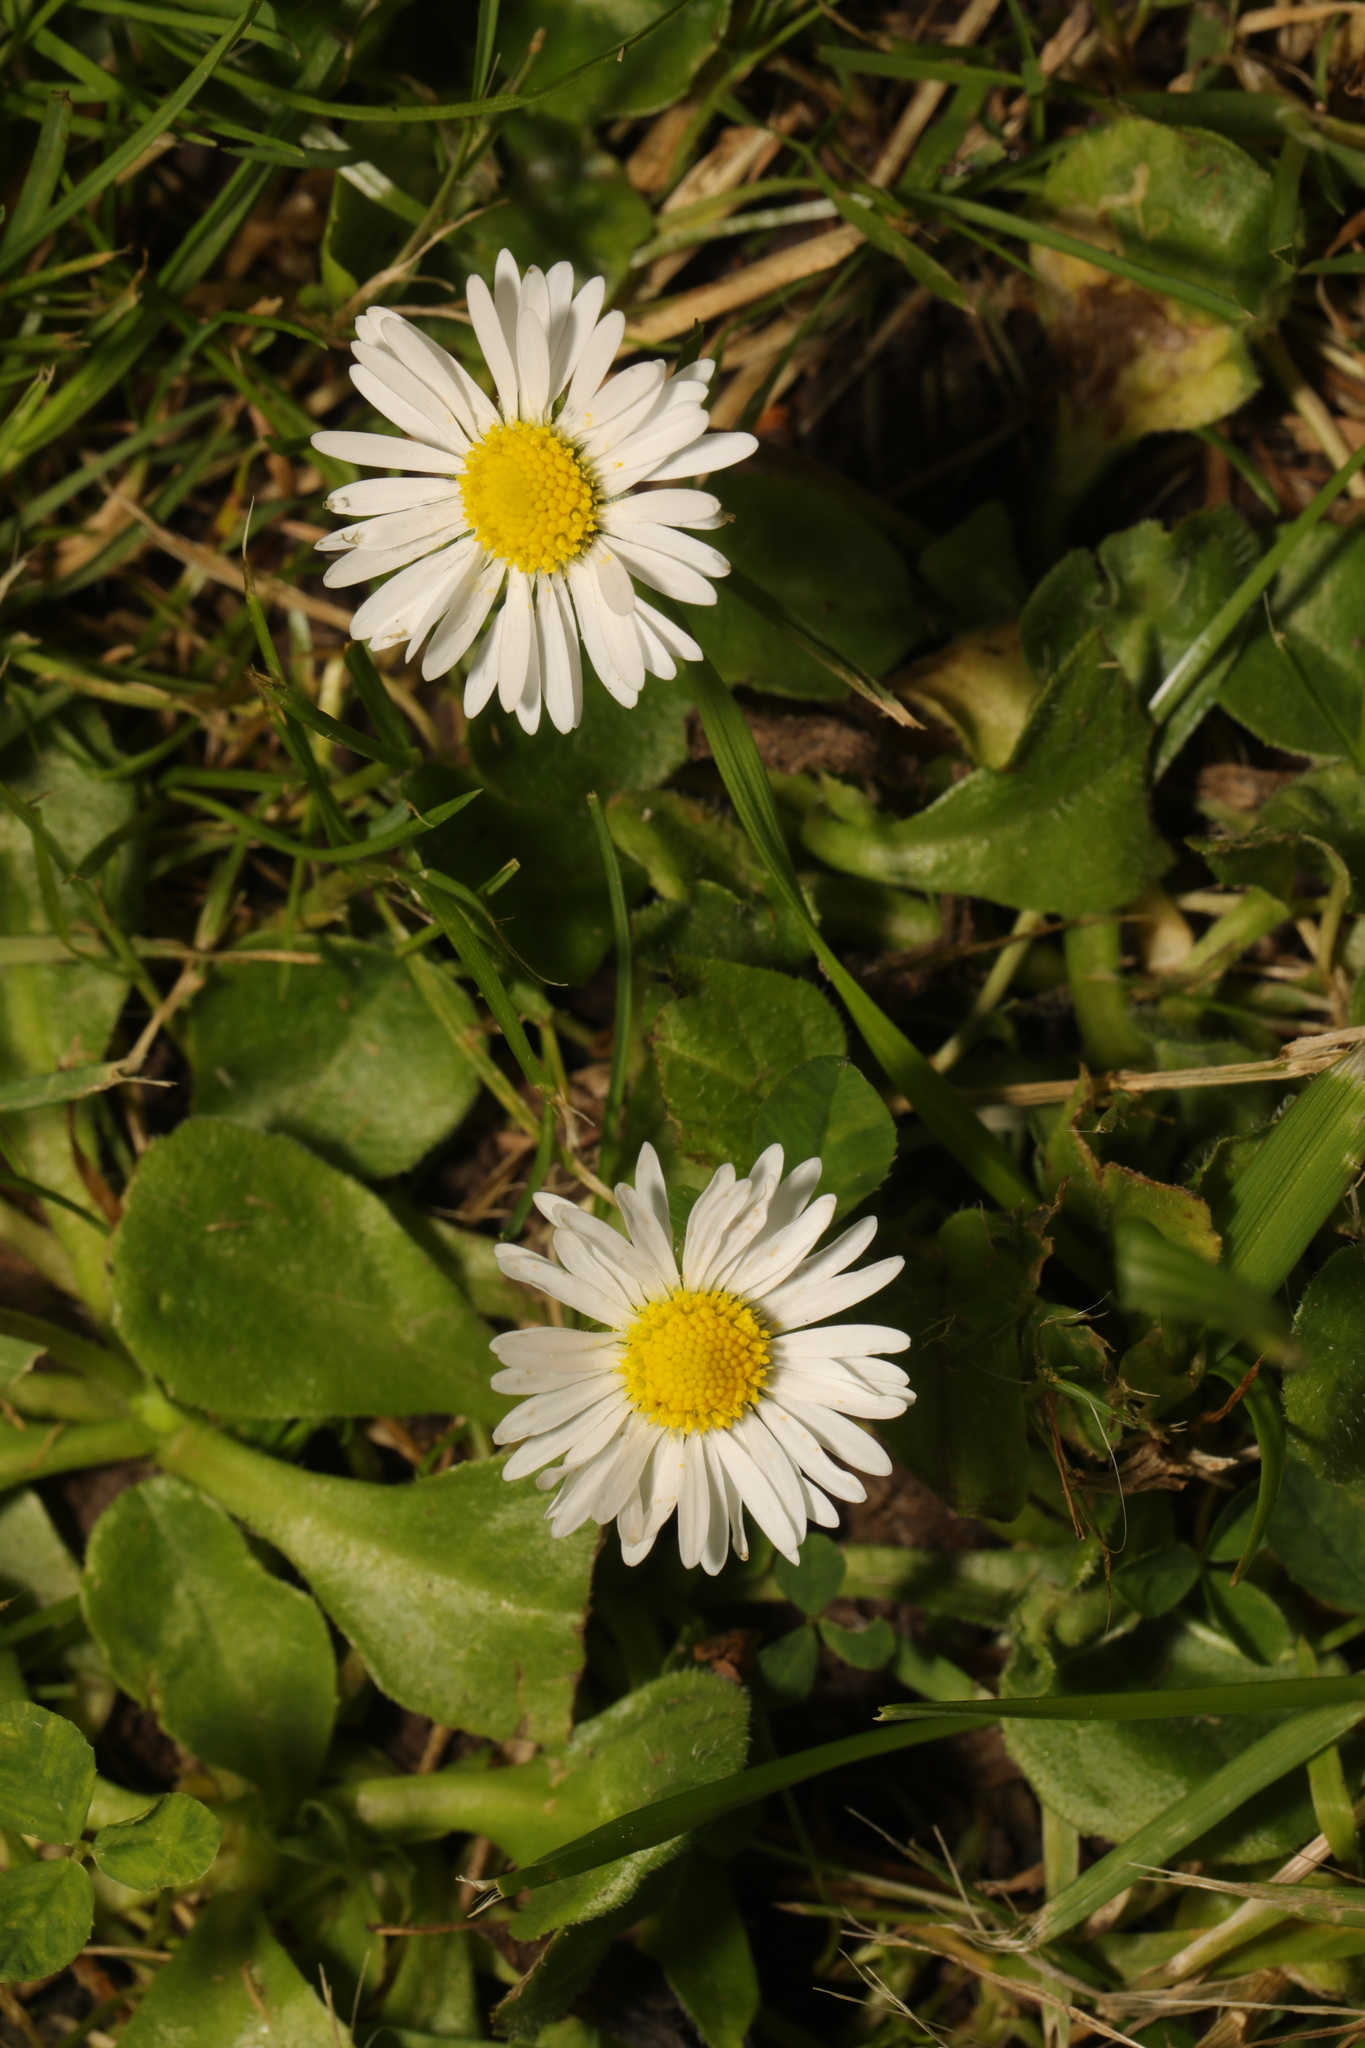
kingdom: Plantae
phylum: Tracheophyta
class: Magnoliopsida
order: Asterales
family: Asteraceae
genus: Bellis
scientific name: Bellis perennis
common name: Lawndaisy
